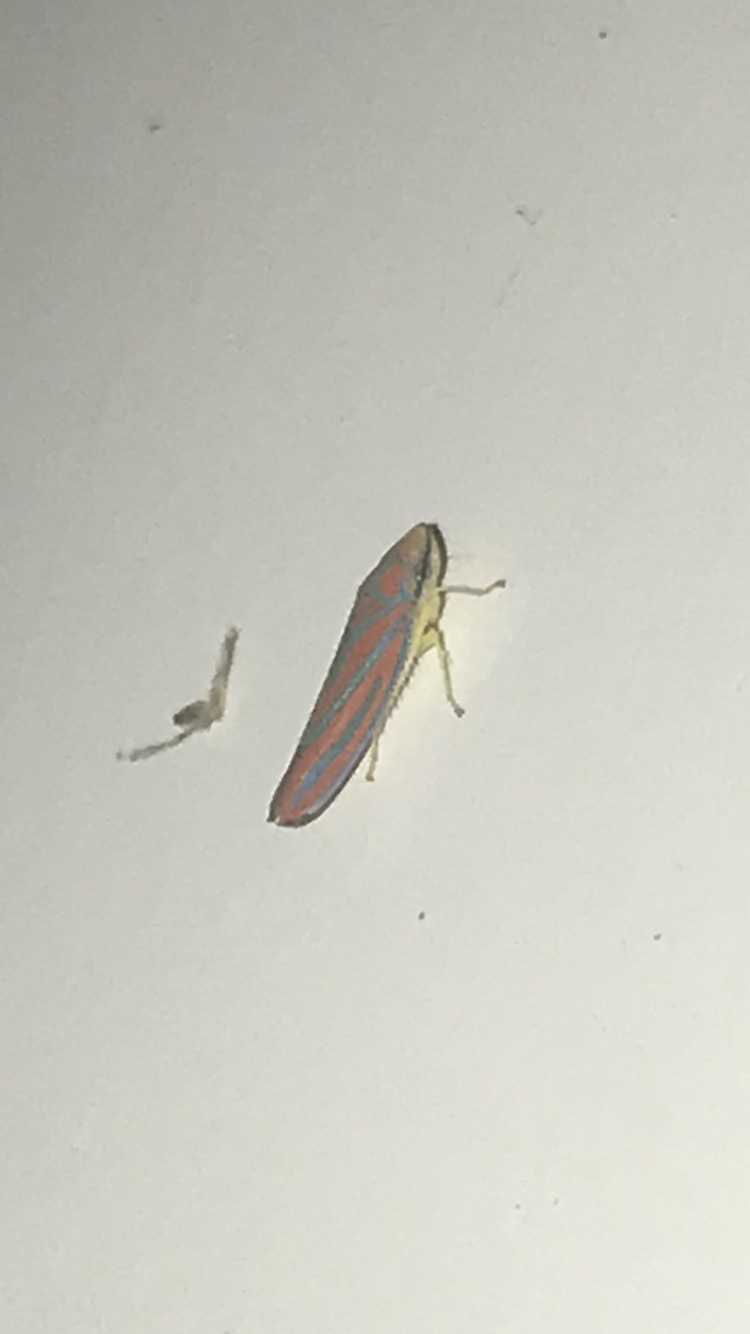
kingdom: Animalia
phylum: Arthropoda
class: Insecta
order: Hemiptera
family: Cicadellidae
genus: Graphocephala
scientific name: Graphocephala coccinea
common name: Candy-striped leafhopper
